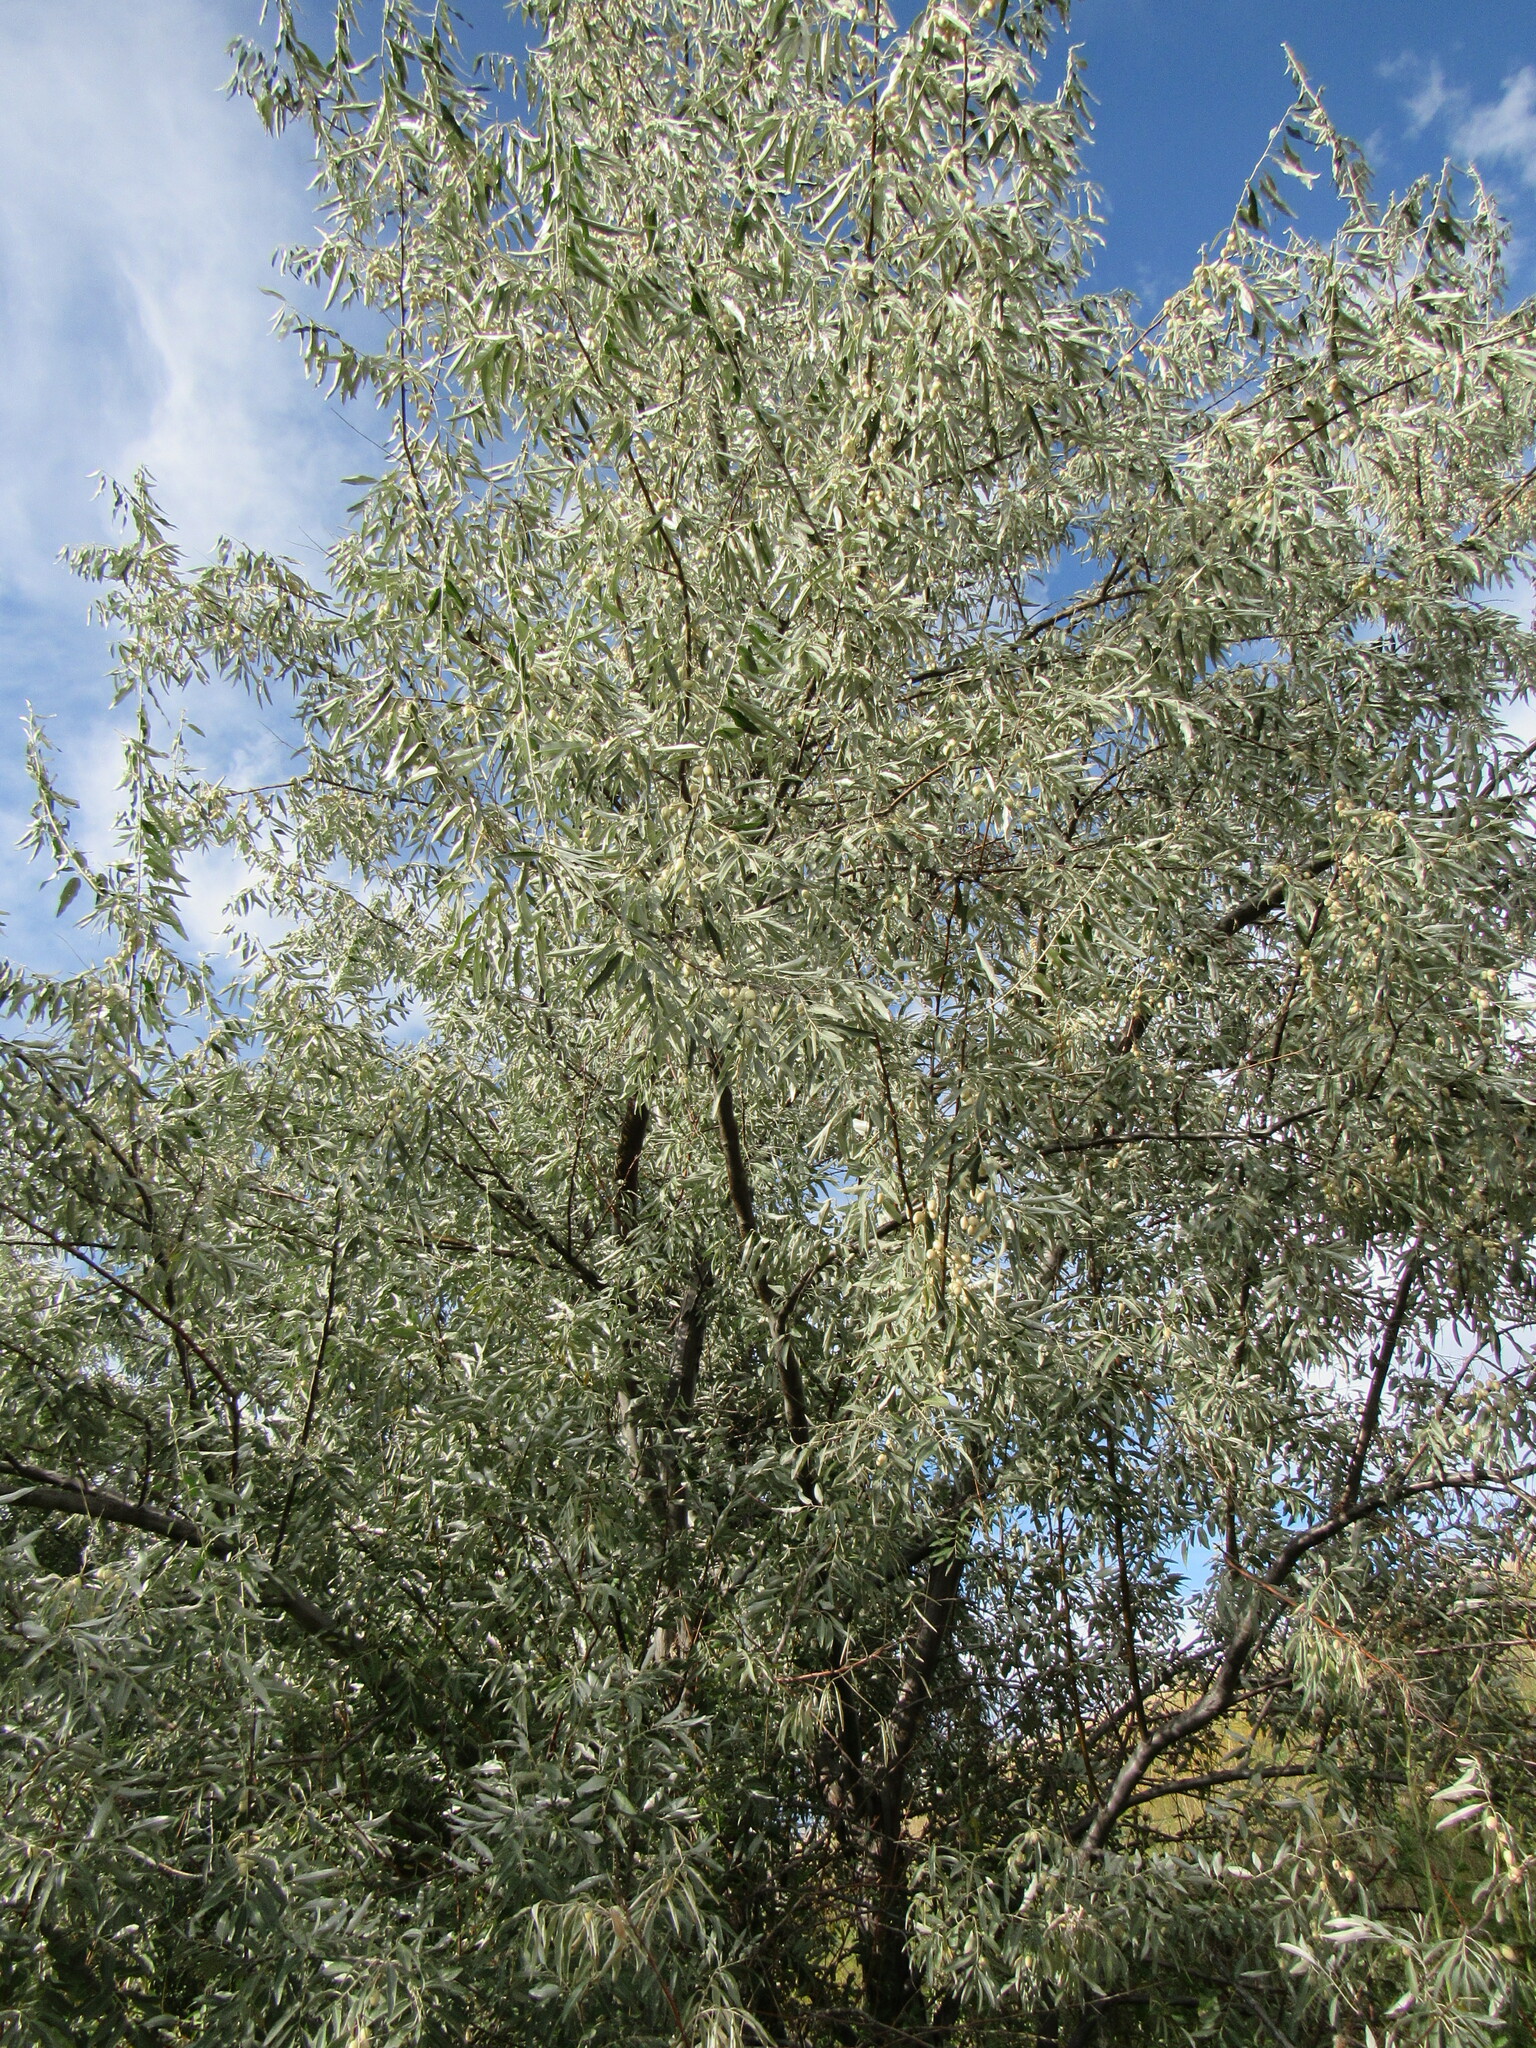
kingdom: Plantae
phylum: Tracheophyta
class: Magnoliopsida
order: Rosales
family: Elaeagnaceae
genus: Elaeagnus
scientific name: Elaeagnus angustifolia
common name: Russian olive
